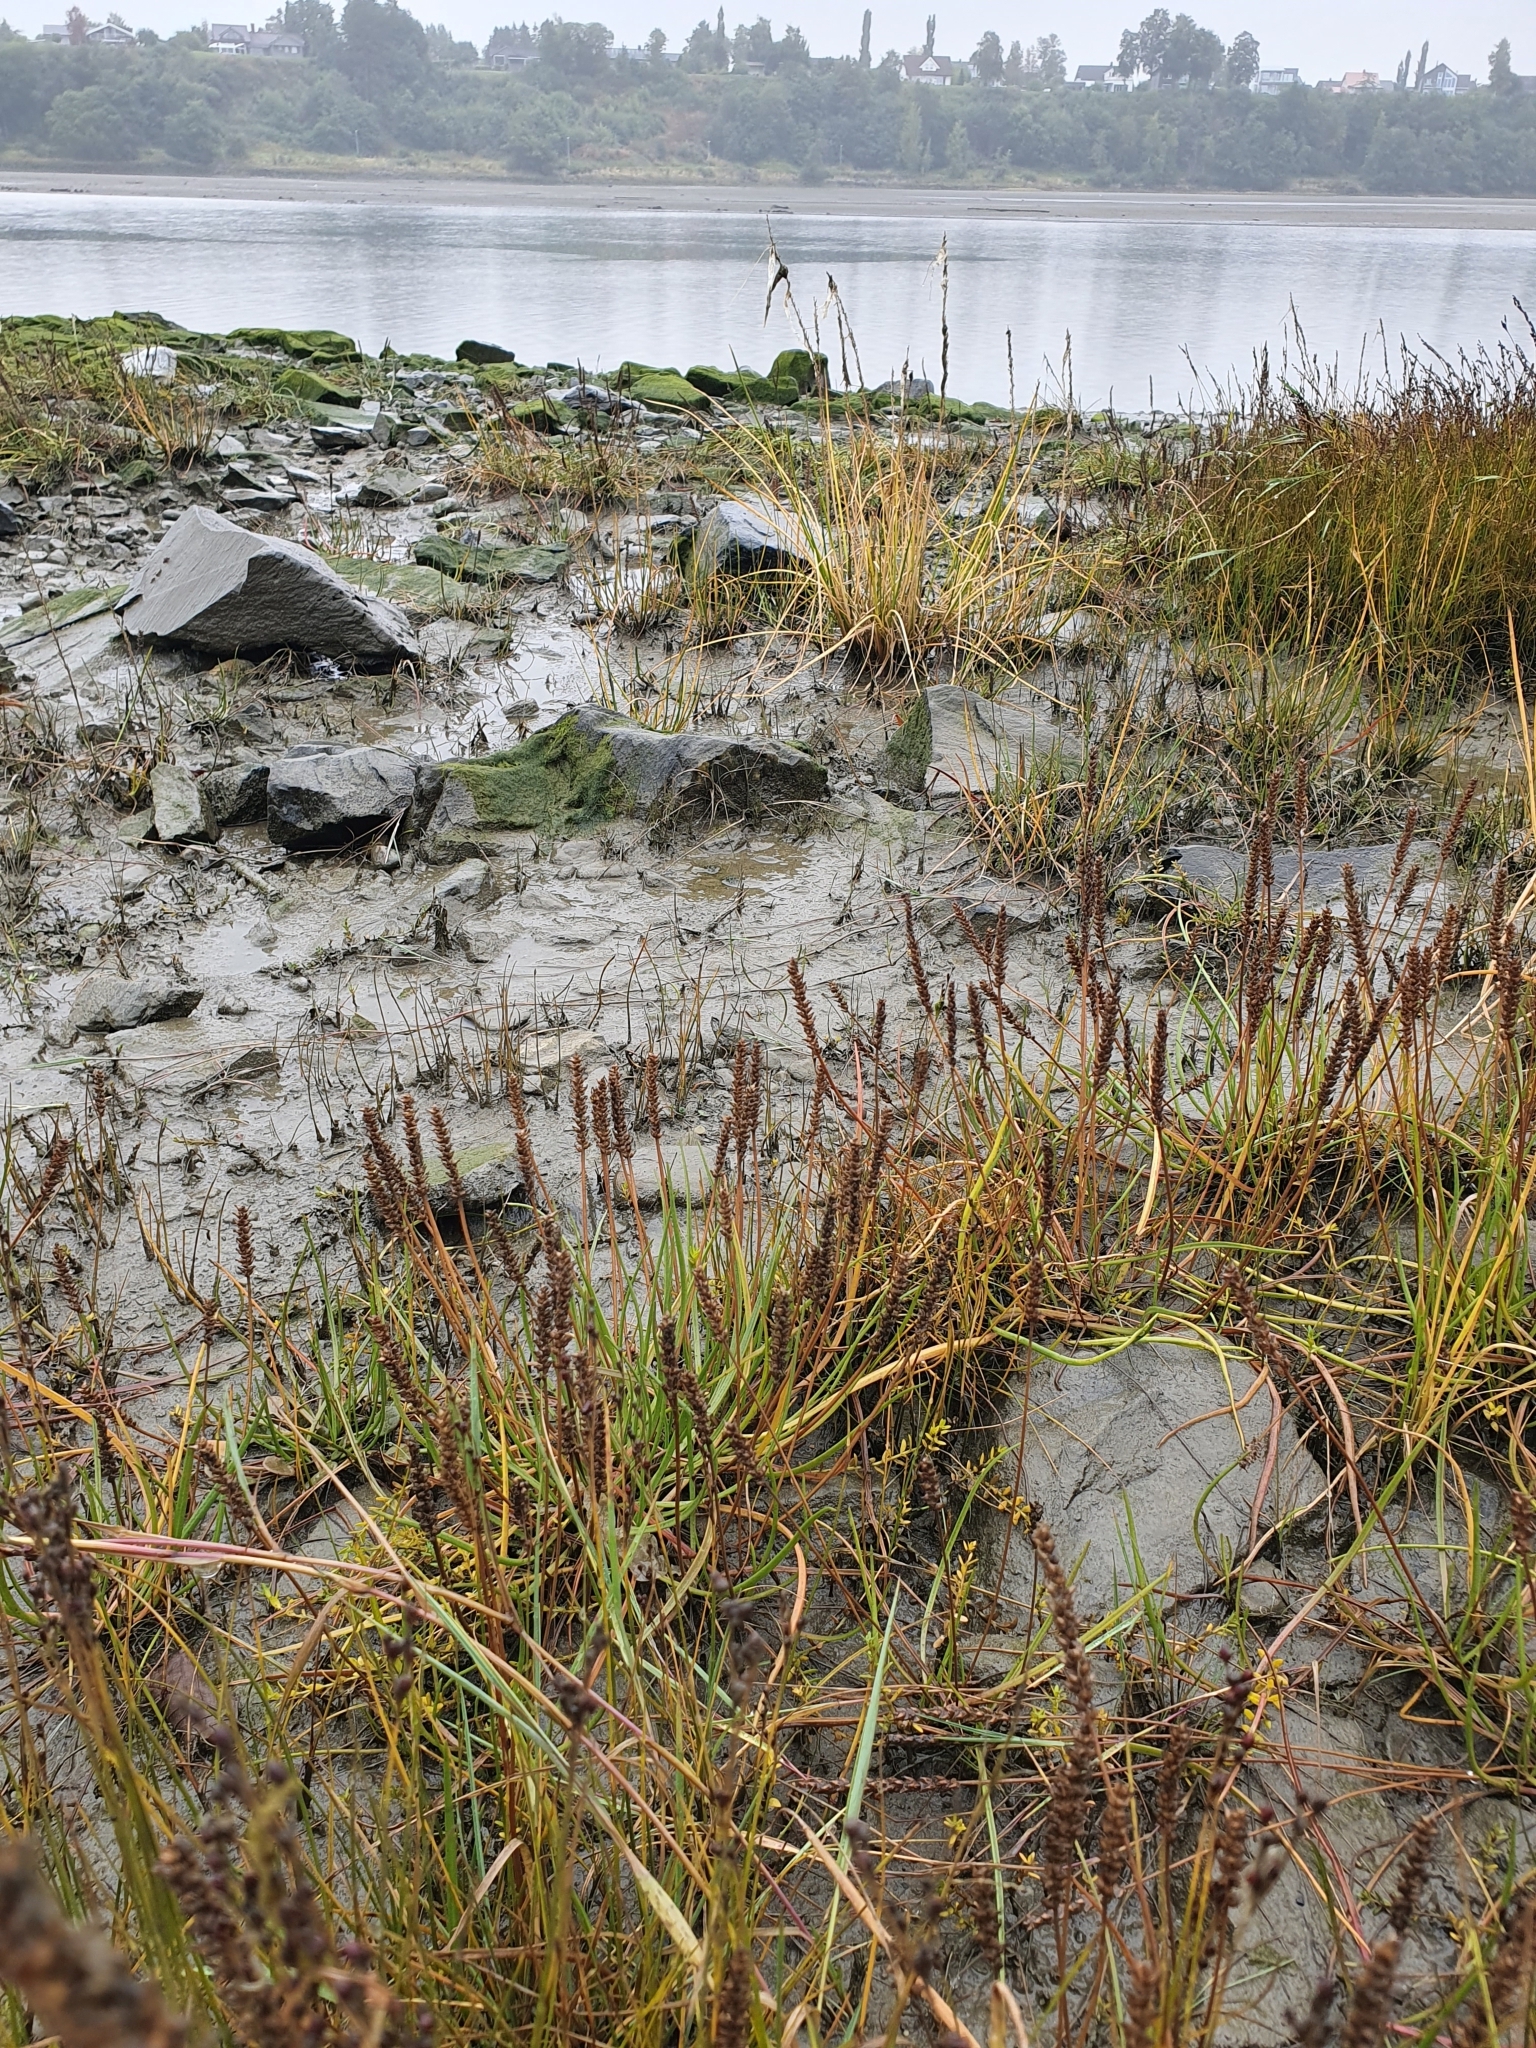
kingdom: Plantae
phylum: Tracheophyta
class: Magnoliopsida
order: Lamiales
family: Plantaginaceae
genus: Plantago
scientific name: Plantago maritima
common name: Sea plantain
